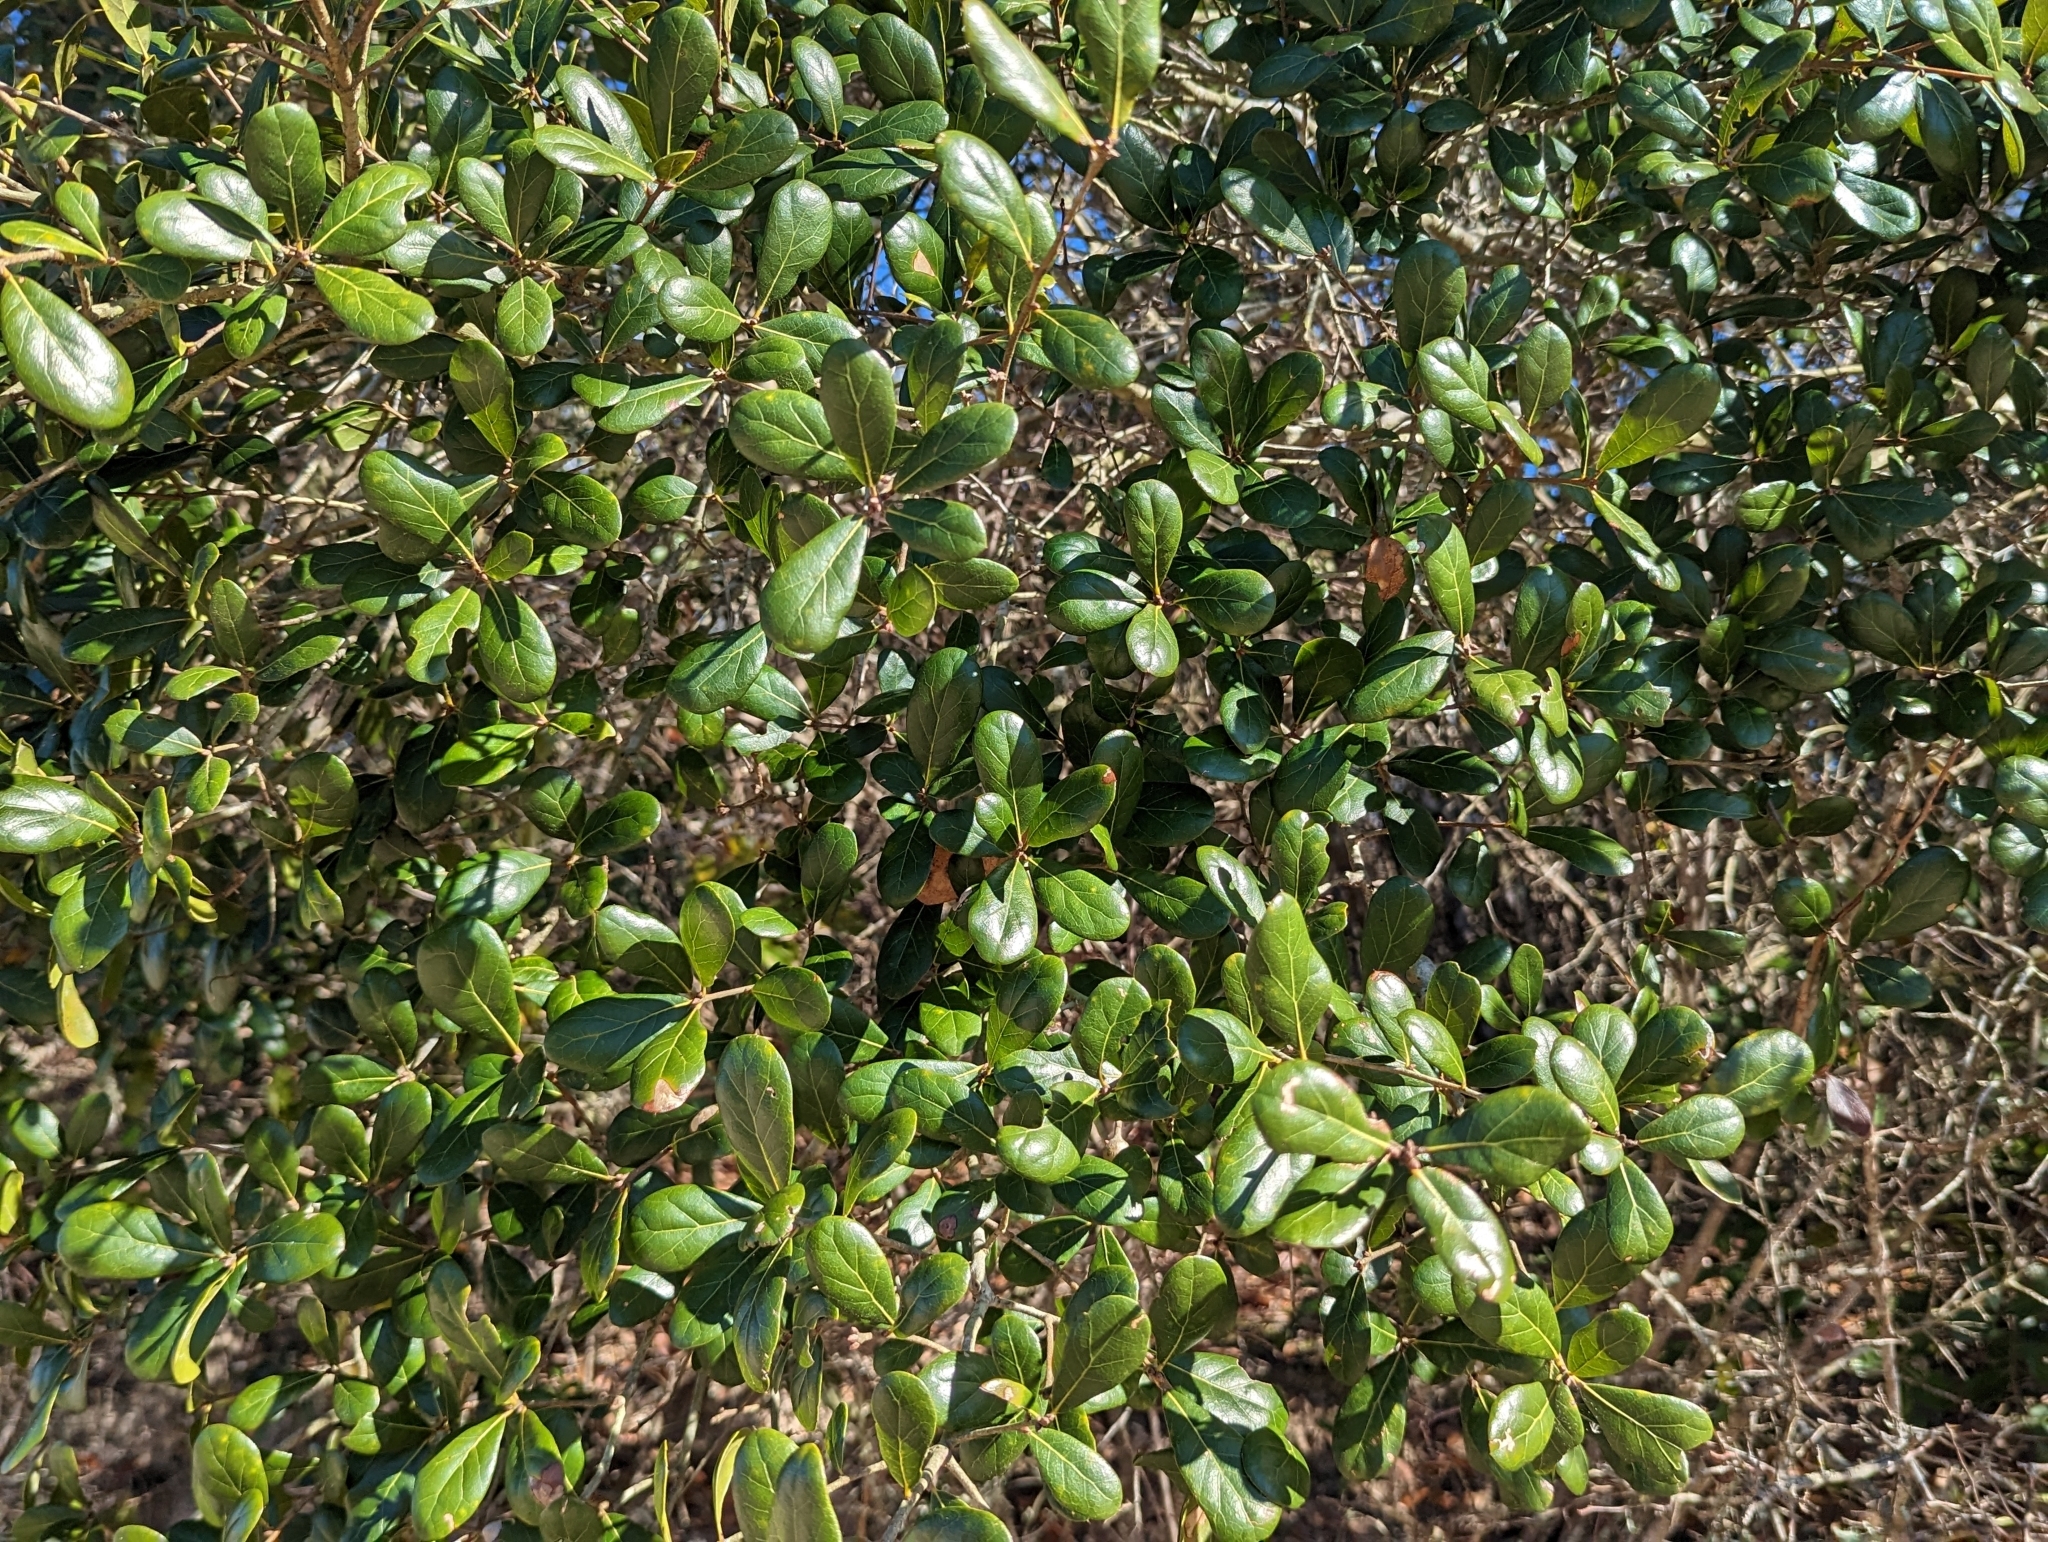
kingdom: Plantae
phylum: Tracheophyta
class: Magnoliopsida
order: Fagales
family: Fagaceae
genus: Quercus
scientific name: Quercus myrtifolia
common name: Myrtle oak
